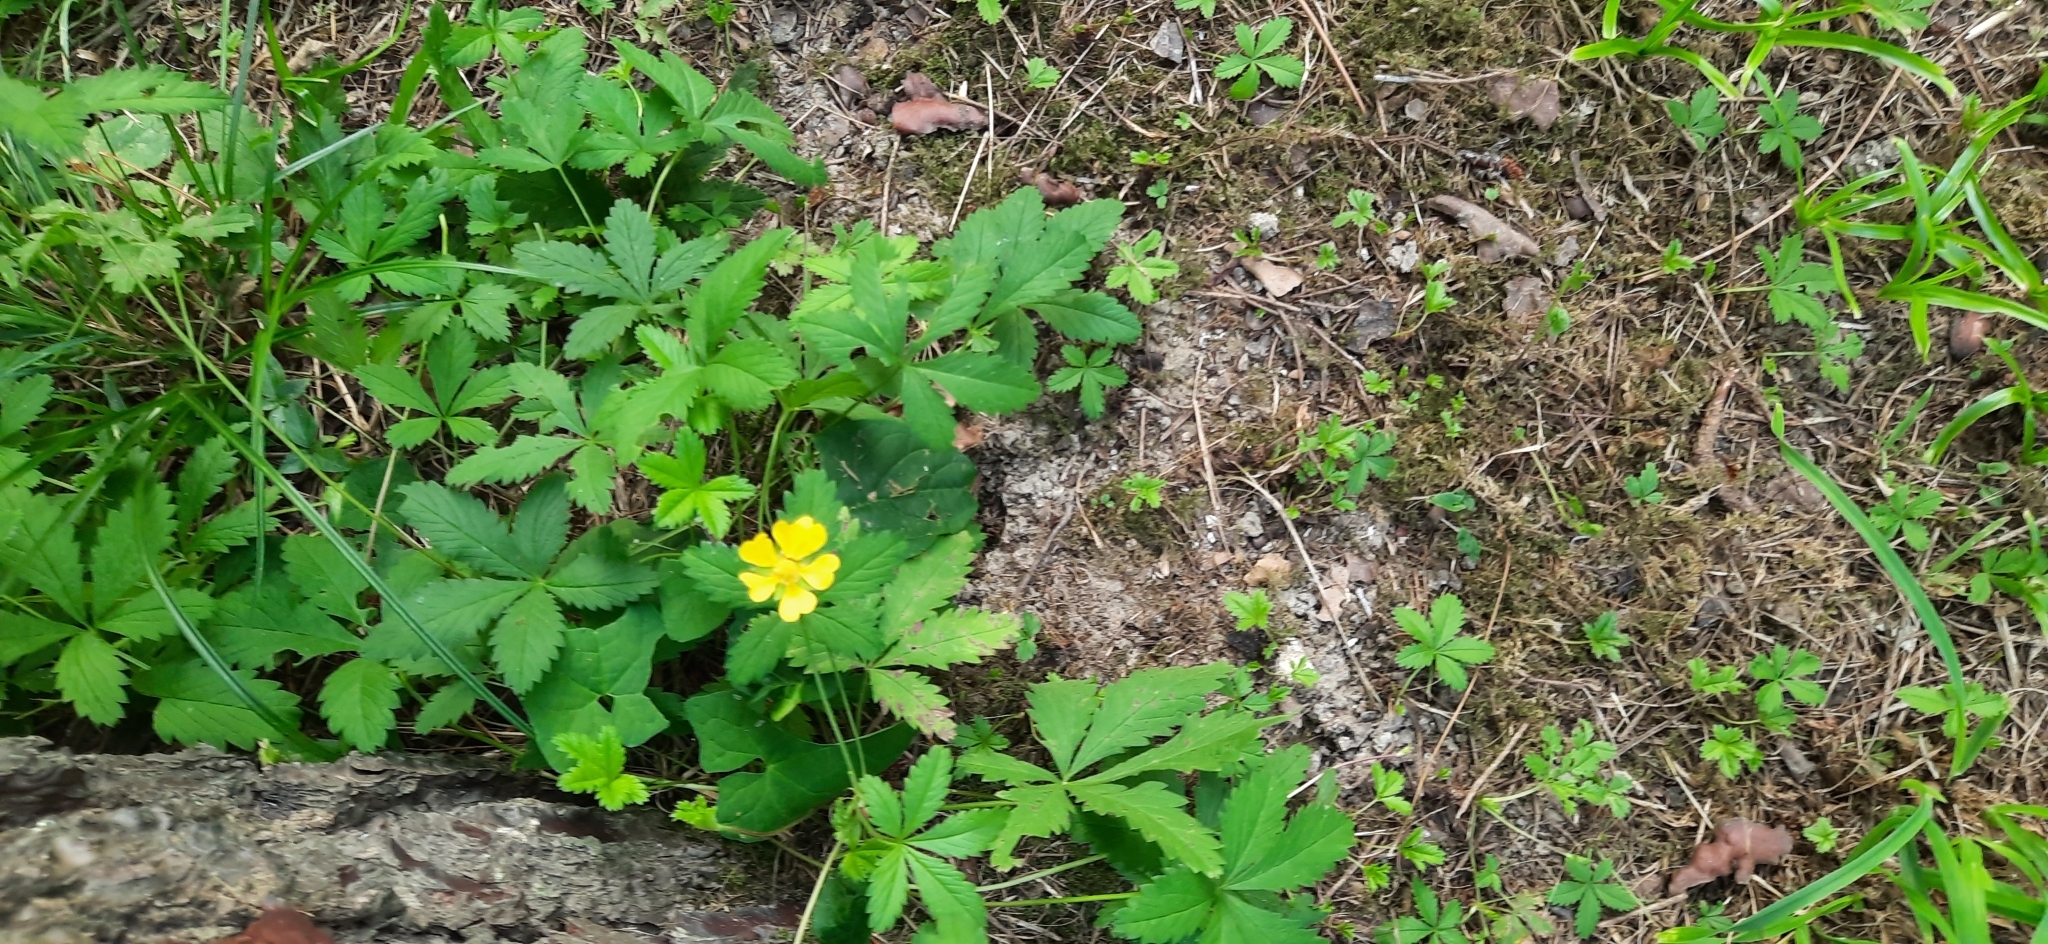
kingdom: Plantae
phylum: Tracheophyta
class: Magnoliopsida
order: Rosales
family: Rosaceae
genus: Potentilla
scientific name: Potentilla reptans
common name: Creeping cinquefoil
